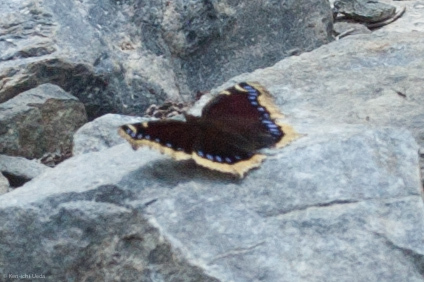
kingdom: Animalia
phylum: Arthropoda
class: Insecta
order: Lepidoptera
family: Nymphalidae
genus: Nymphalis
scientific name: Nymphalis antiopa
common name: Camberwell beauty
